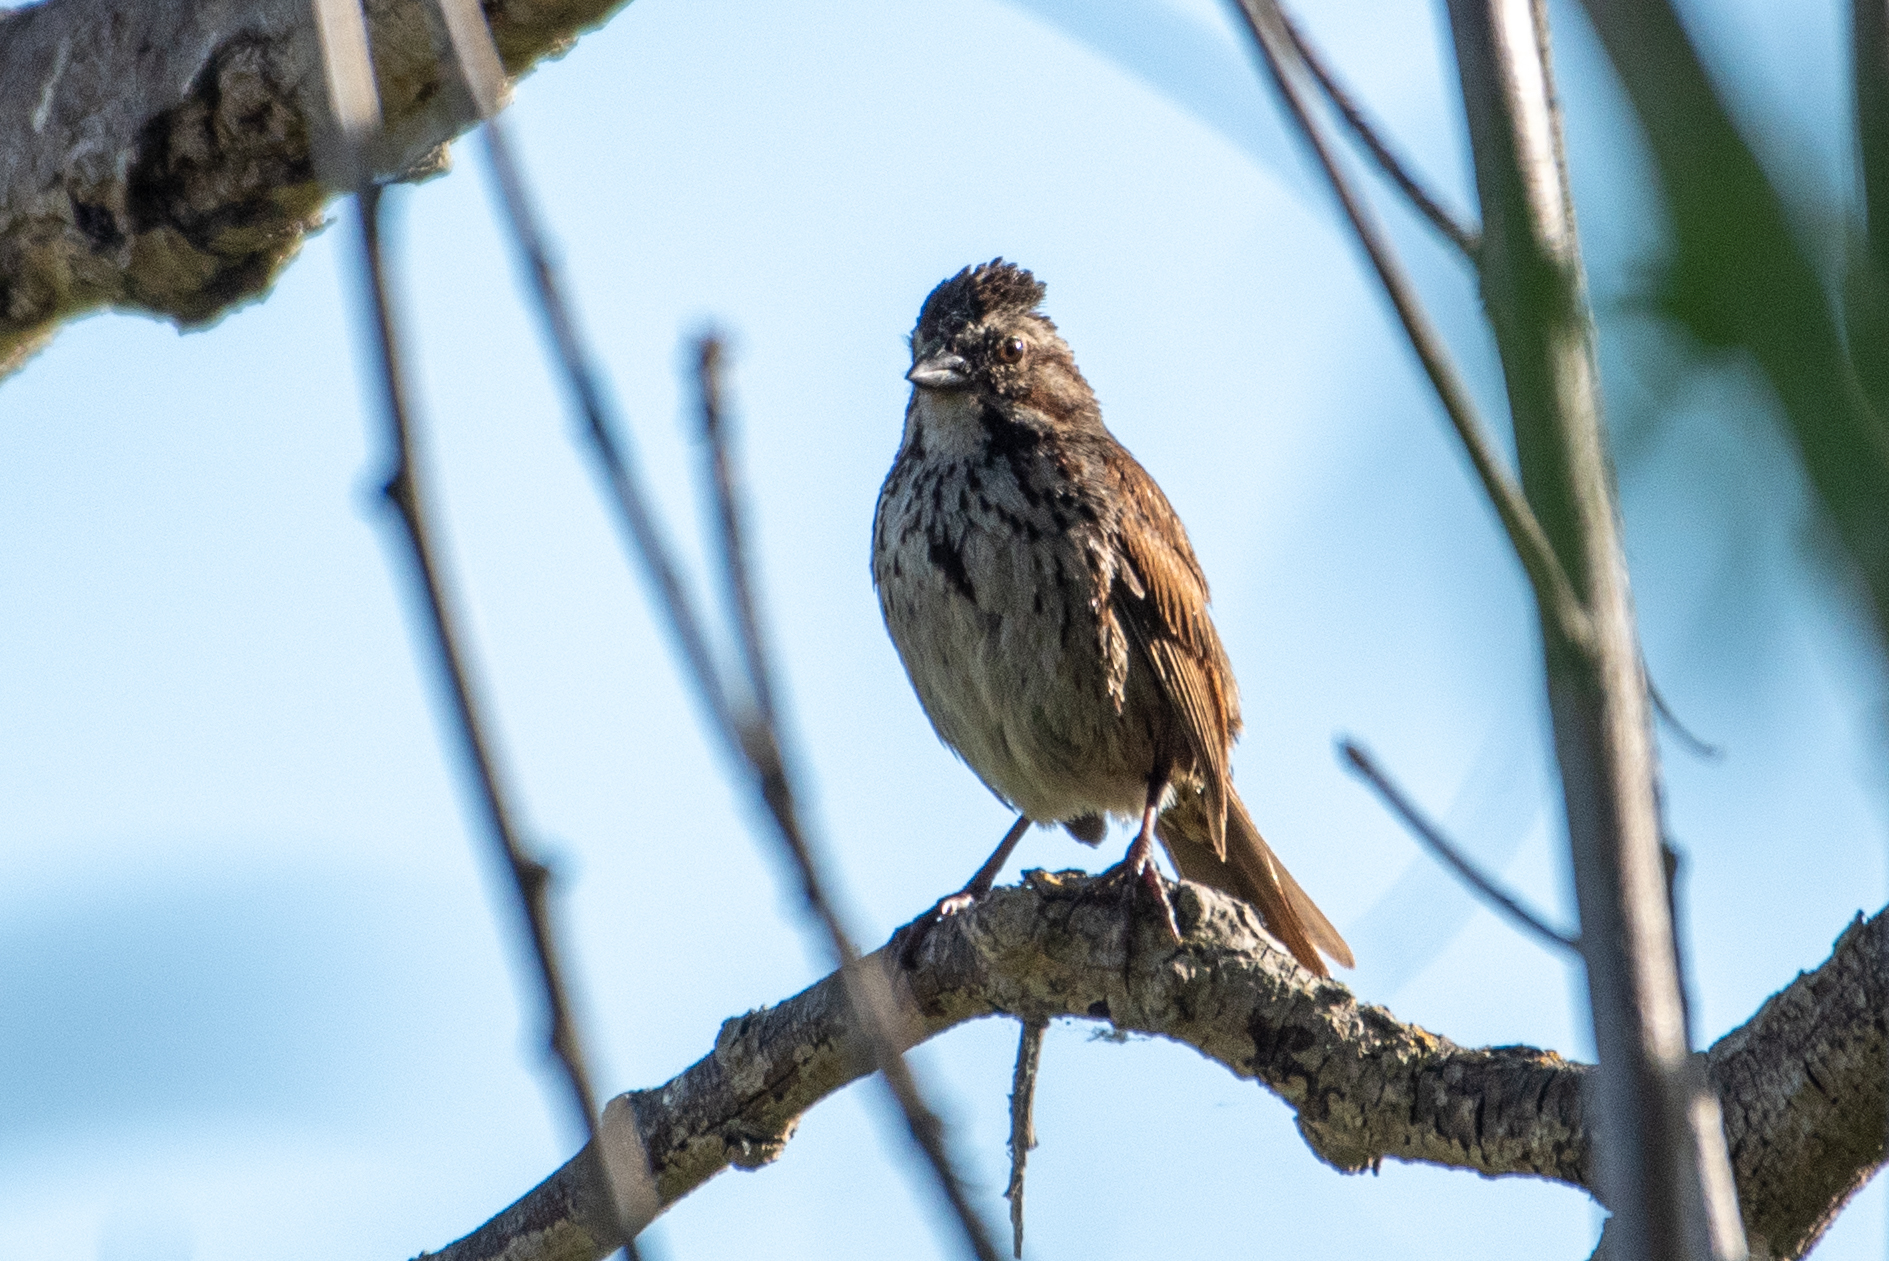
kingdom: Animalia
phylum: Chordata
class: Aves
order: Passeriformes
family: Passerellidae
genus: Melospiza
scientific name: Melospiza melodia
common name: Song sparrow
